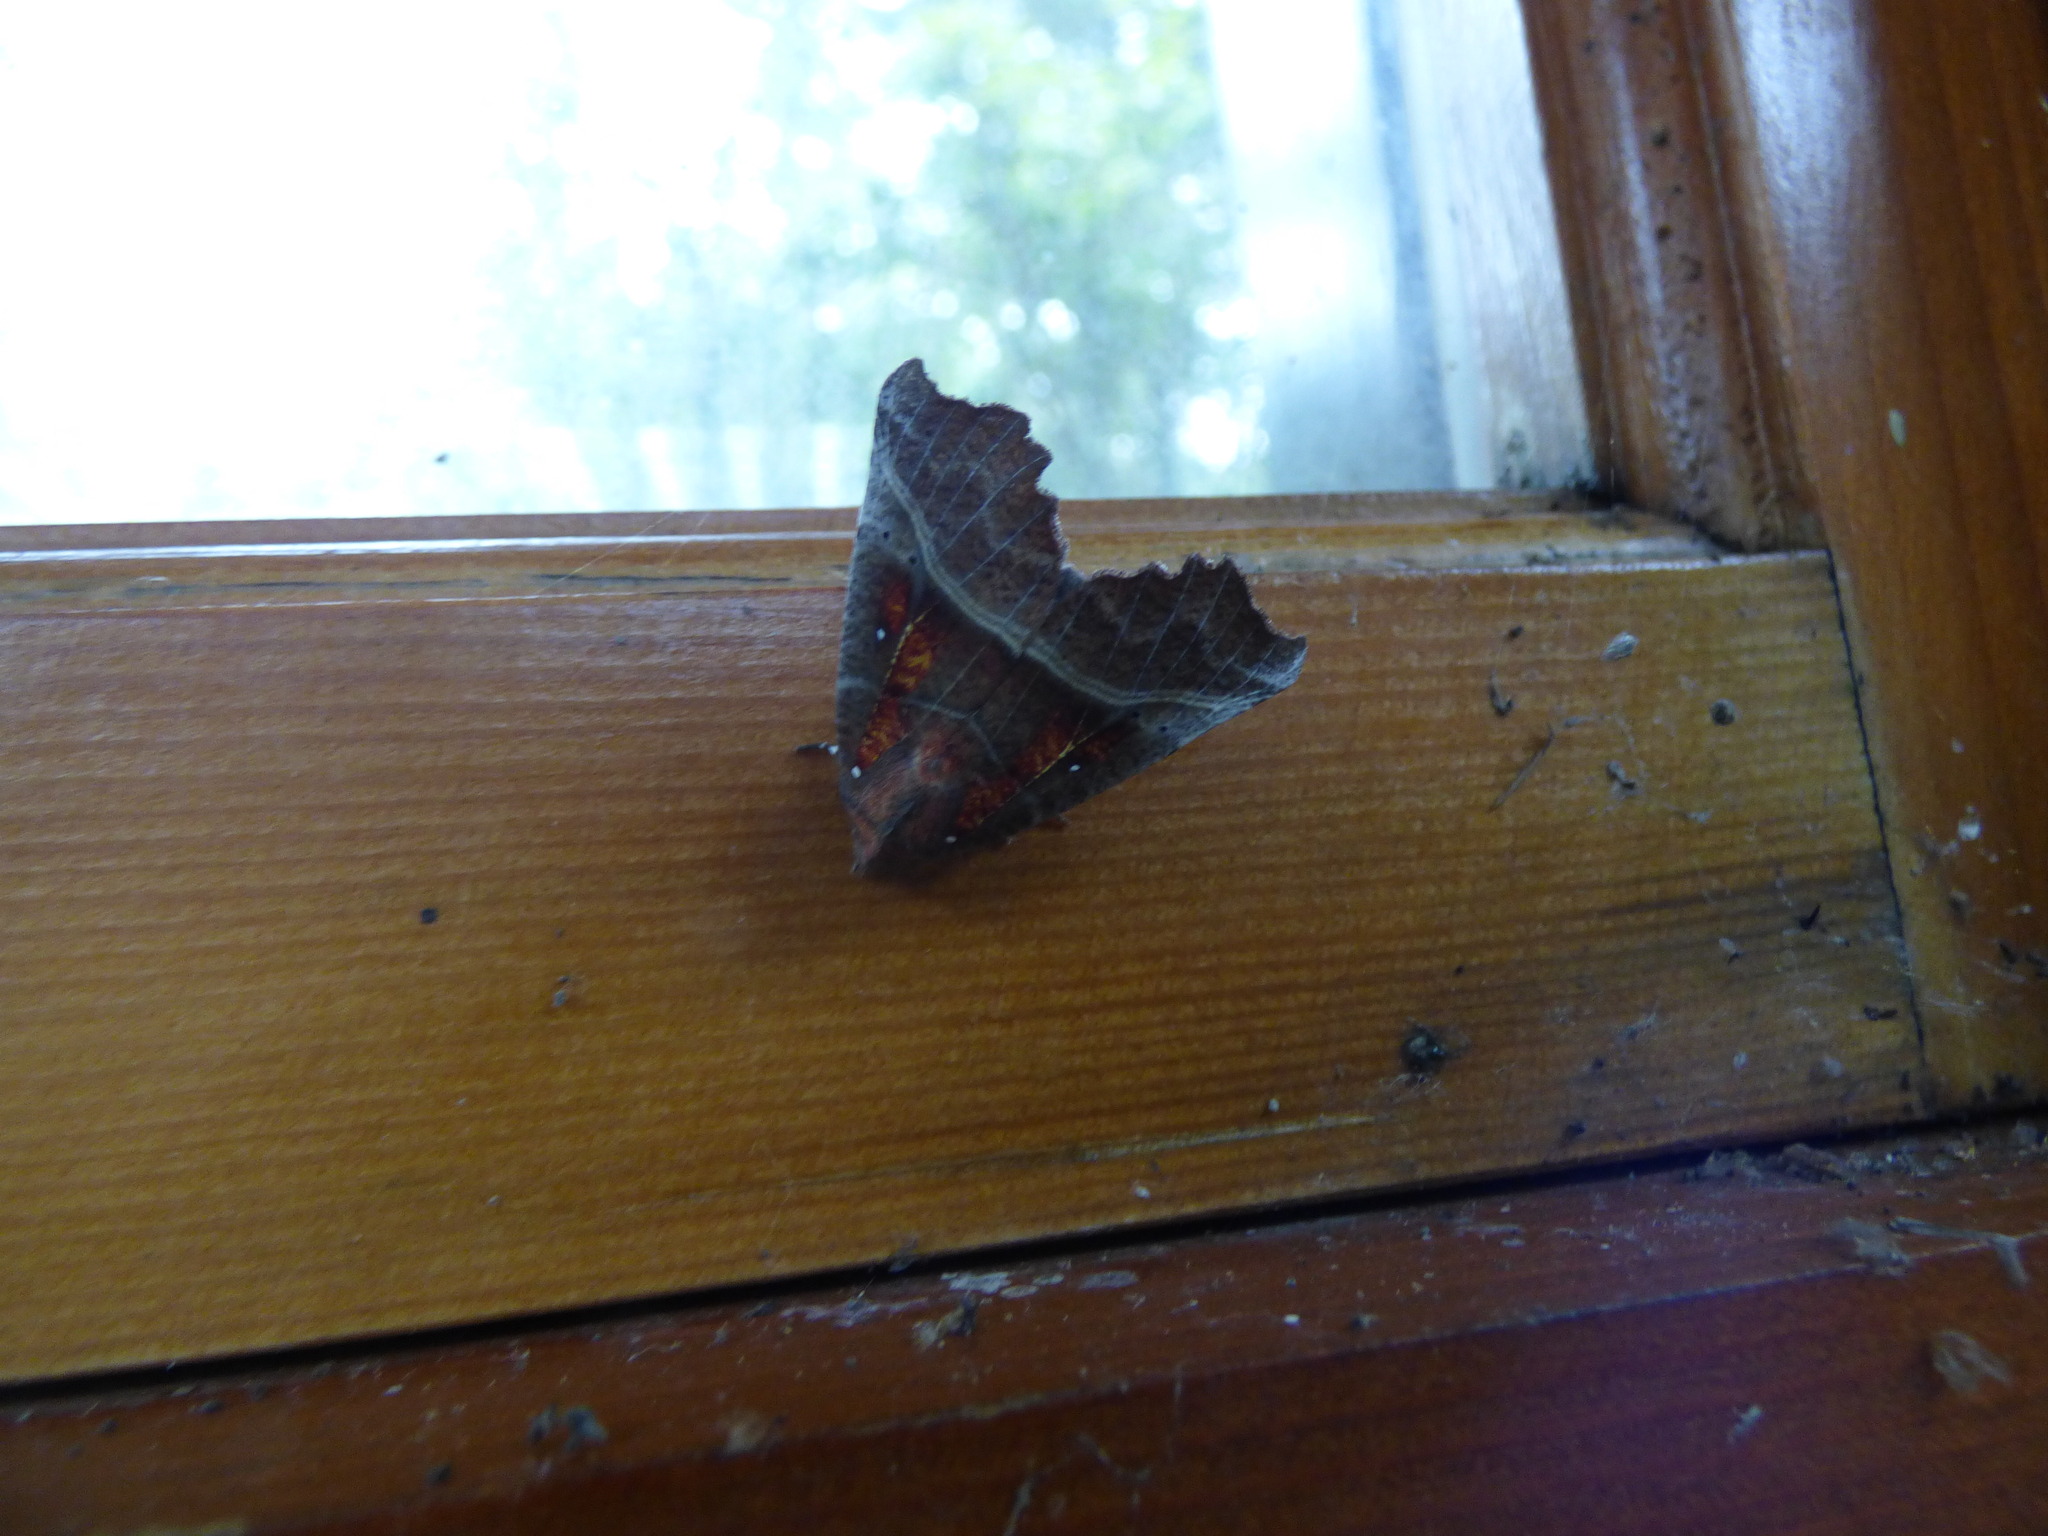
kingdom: Animalia
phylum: Arthropoda
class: Insecta
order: Lepidoptera
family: Erebidae
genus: Scoliopteryx
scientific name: Scoliopteryx libatrix
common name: Herald
